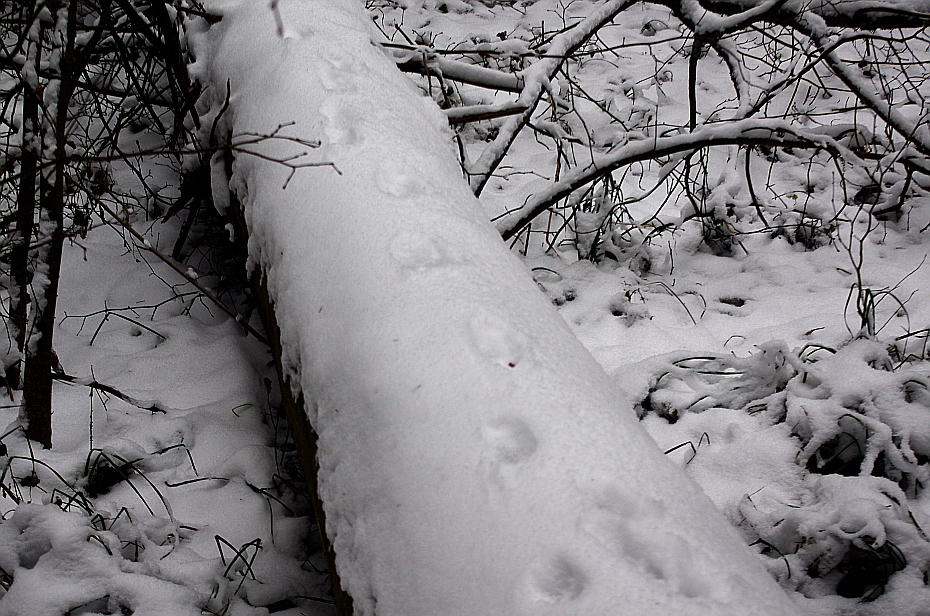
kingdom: Animalia
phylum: Chordata
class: Mammalia
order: Carnivora
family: Canidae
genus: Vulpes
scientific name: Vulpes vulpes
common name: Red fox
